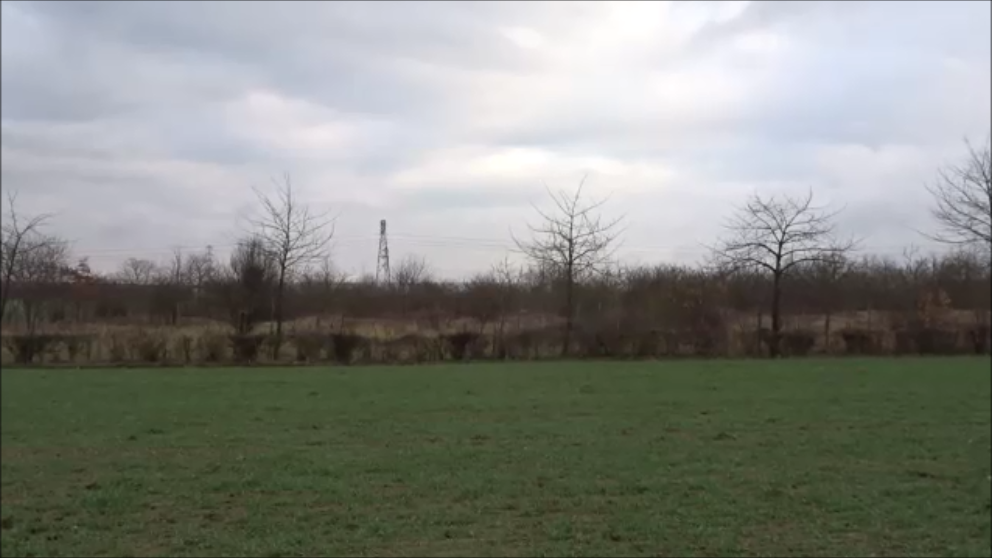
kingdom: Animalia
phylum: Chordata
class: Aves
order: Passeriformes
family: Corvidae
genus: Corvus
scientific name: Corvus corone
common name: Carrion crow
